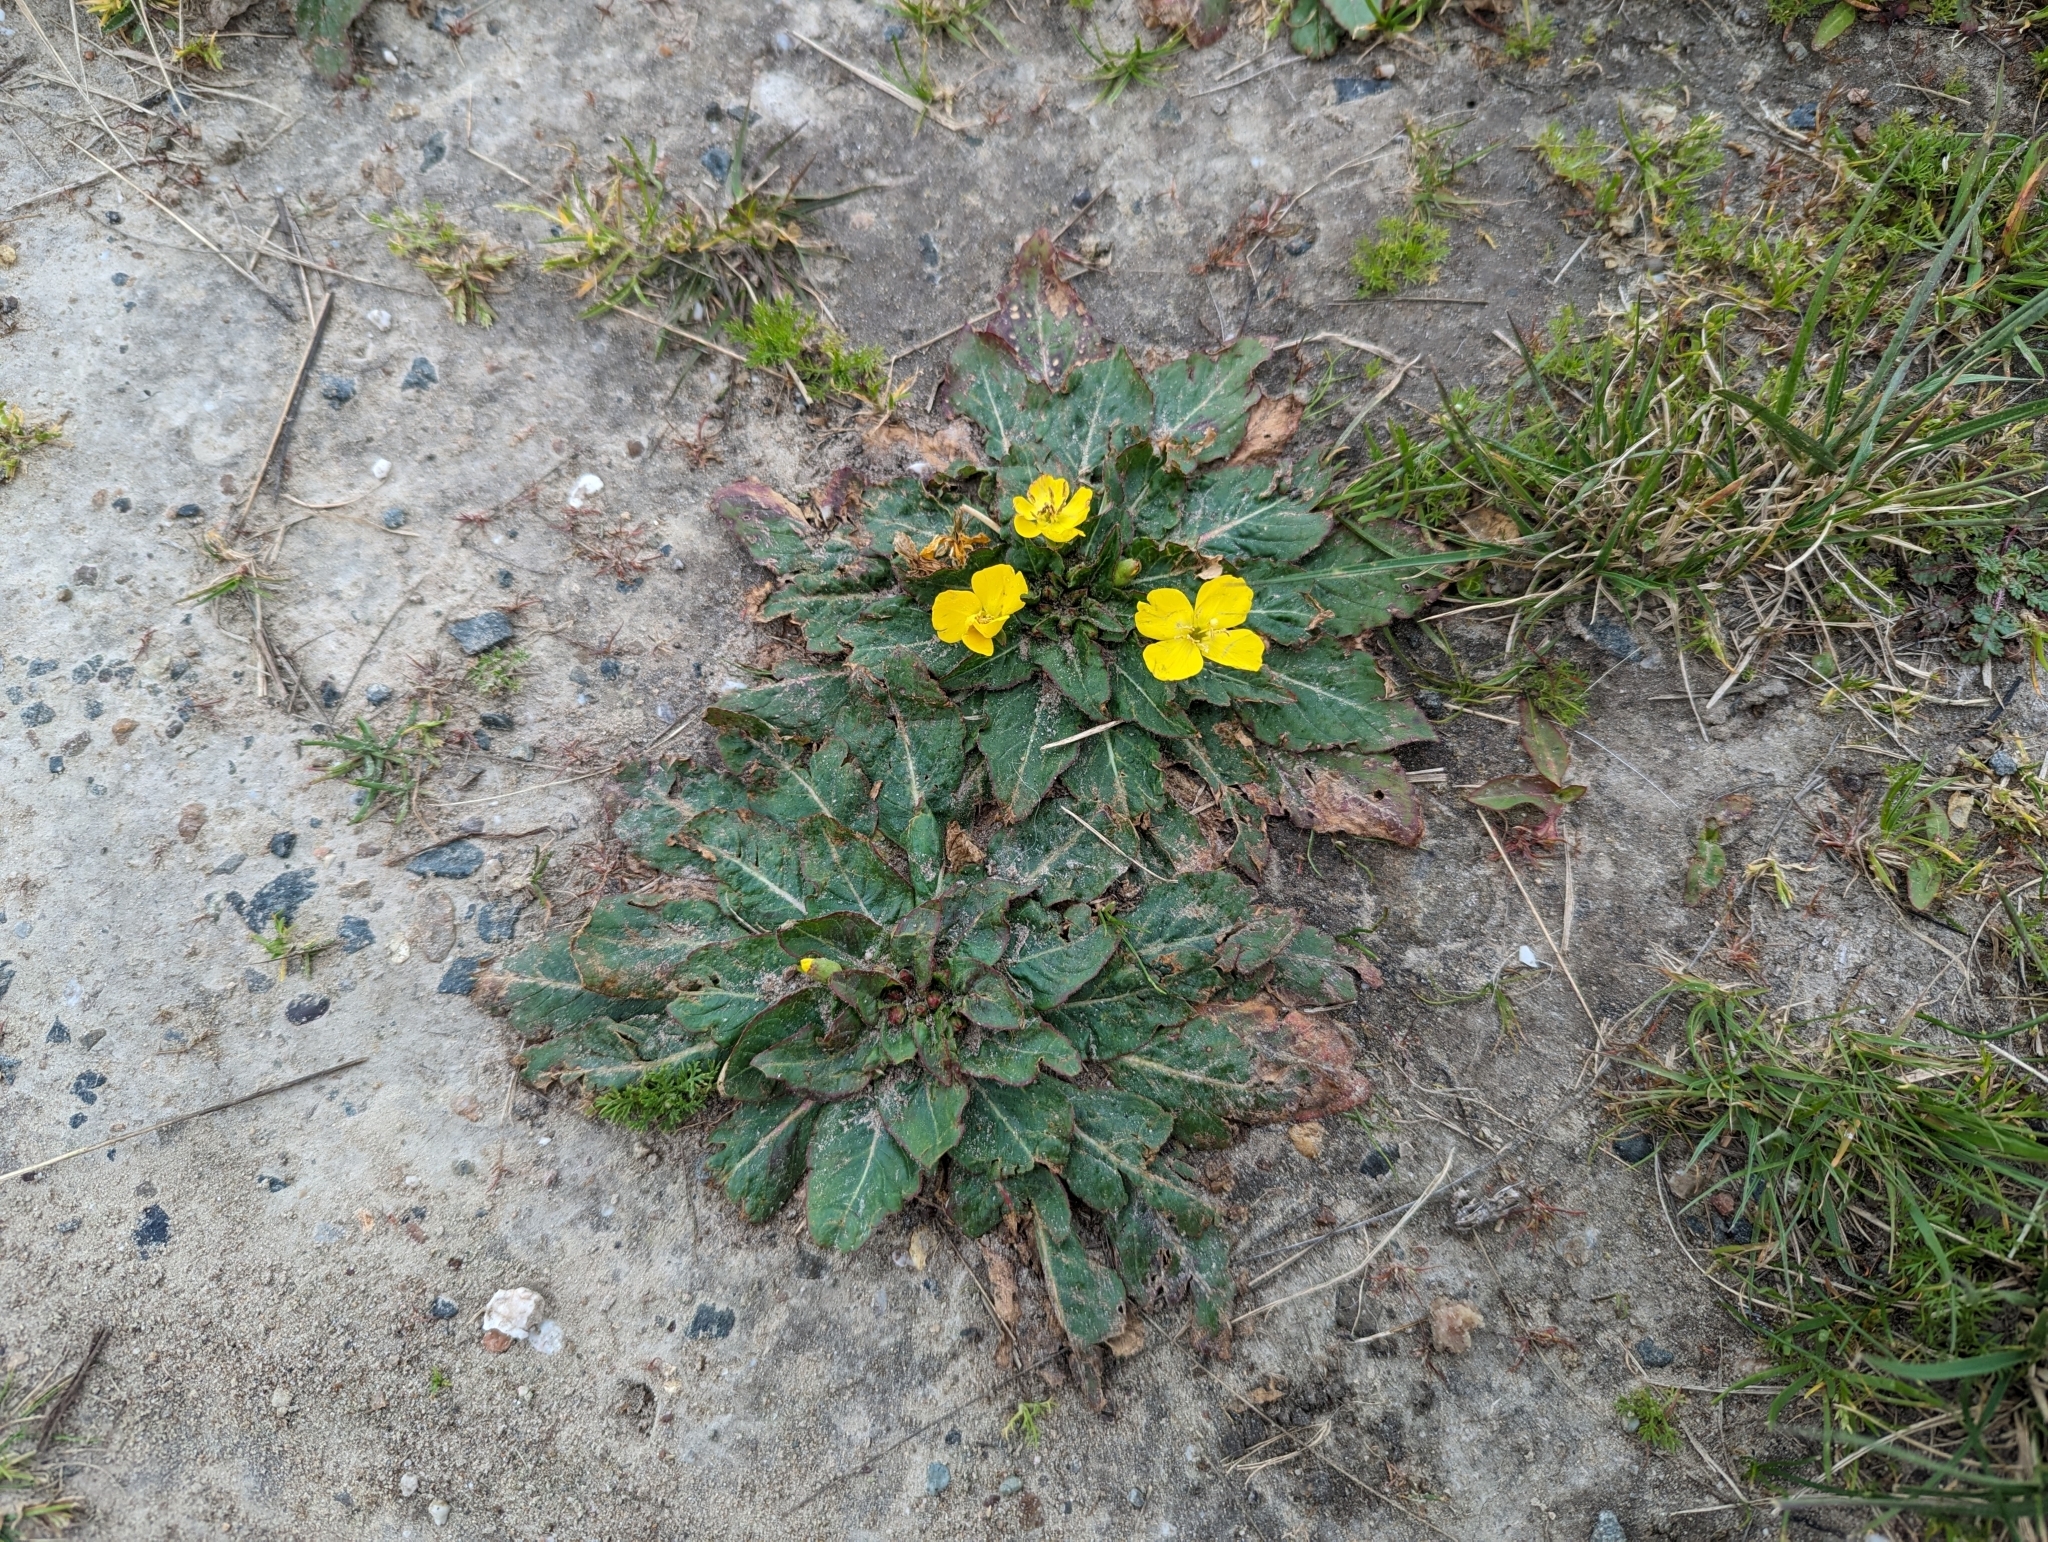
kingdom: Plantae
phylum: Tracheophyta
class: Magnoliopsida
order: Myrtales
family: Onagraceae
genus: Taraxia
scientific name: Taraxia ovata
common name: Goldeneggs
